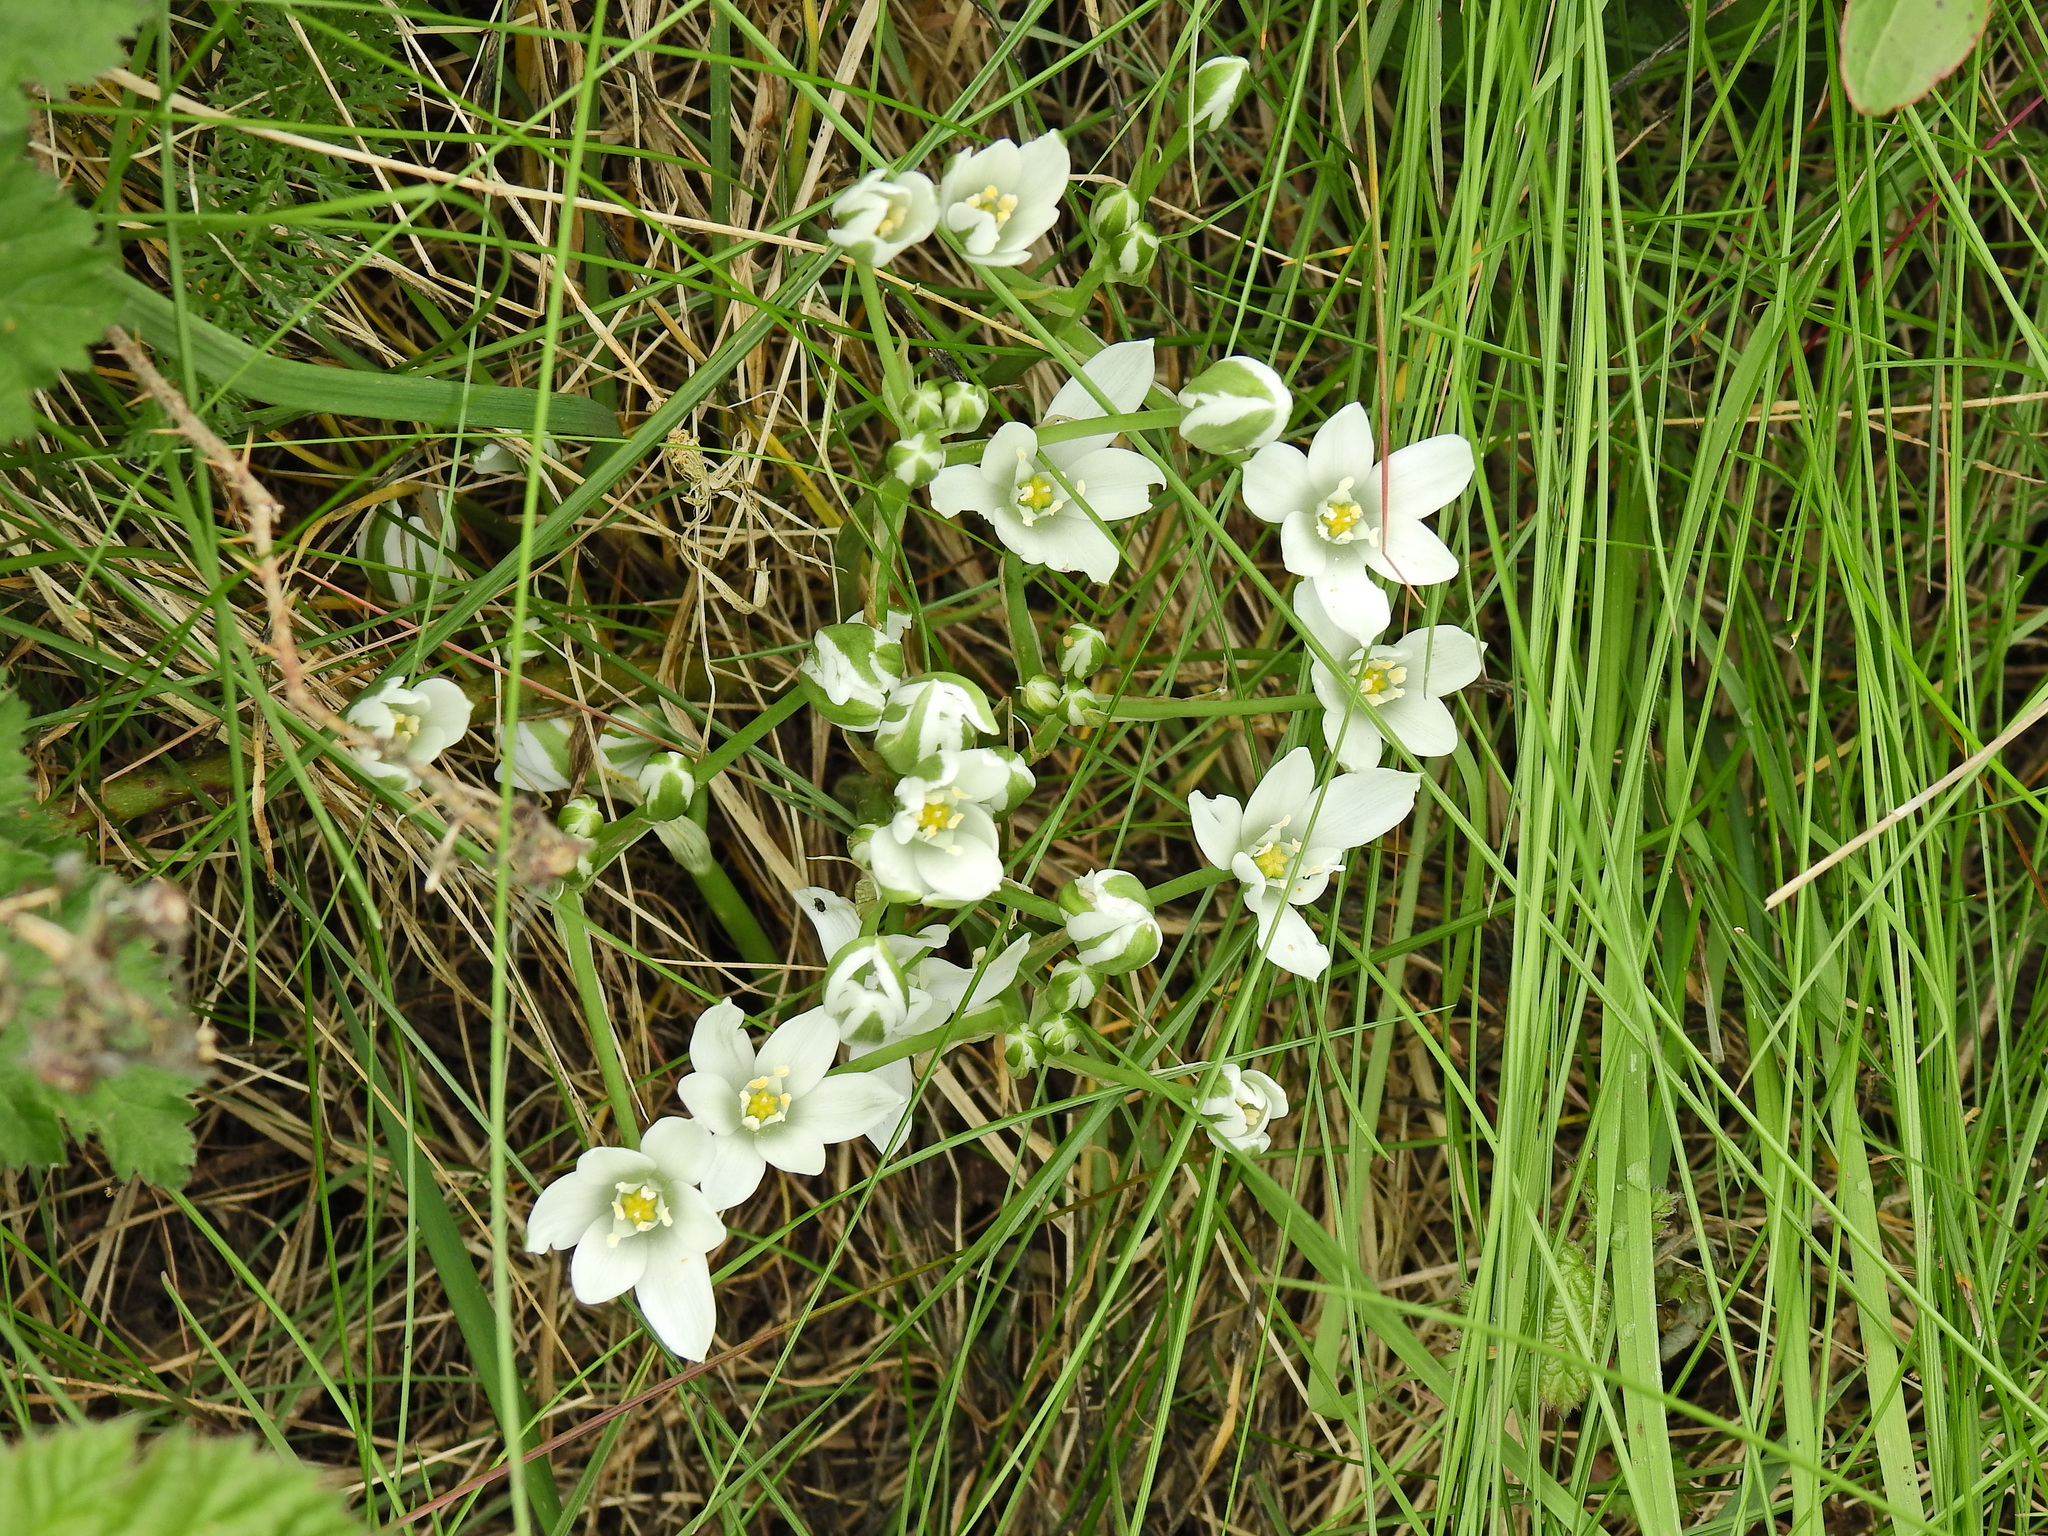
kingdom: Plantae
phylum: Tracheophyta
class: Liliopsida
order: Asparagales
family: Asparagaceae
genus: Ornithogalum
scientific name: Ornithogalum umbellatum
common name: Garden star-of-bethlehem
